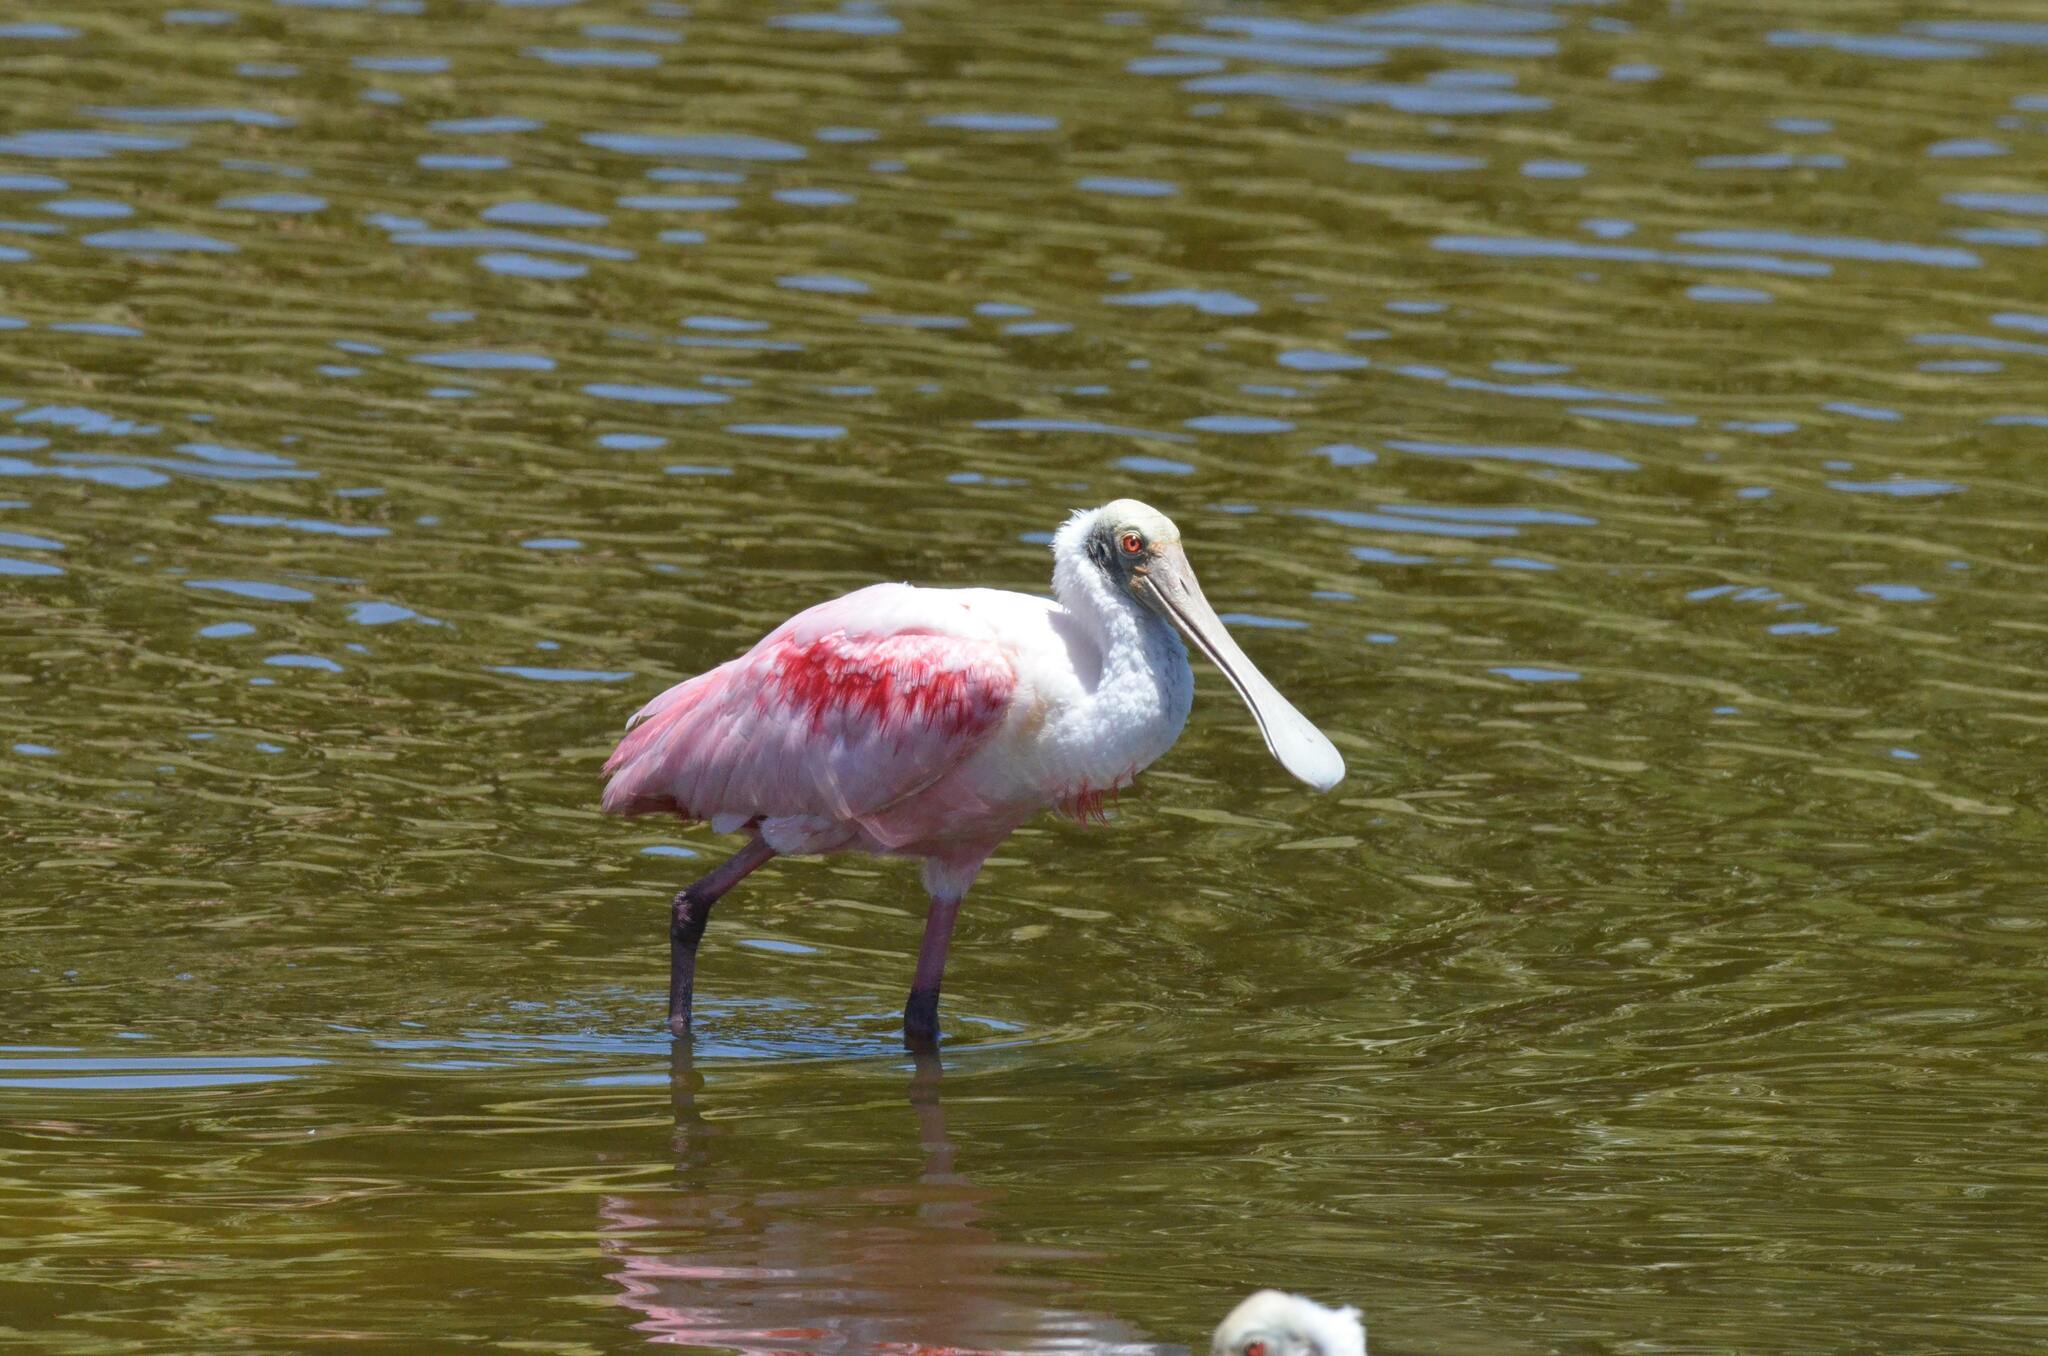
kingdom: Animalia
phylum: Chordata
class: Aves
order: Pelecaniformes
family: Threskiornithidae
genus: Platalea
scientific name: Platalea ajaja
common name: Roseate spoonbill
